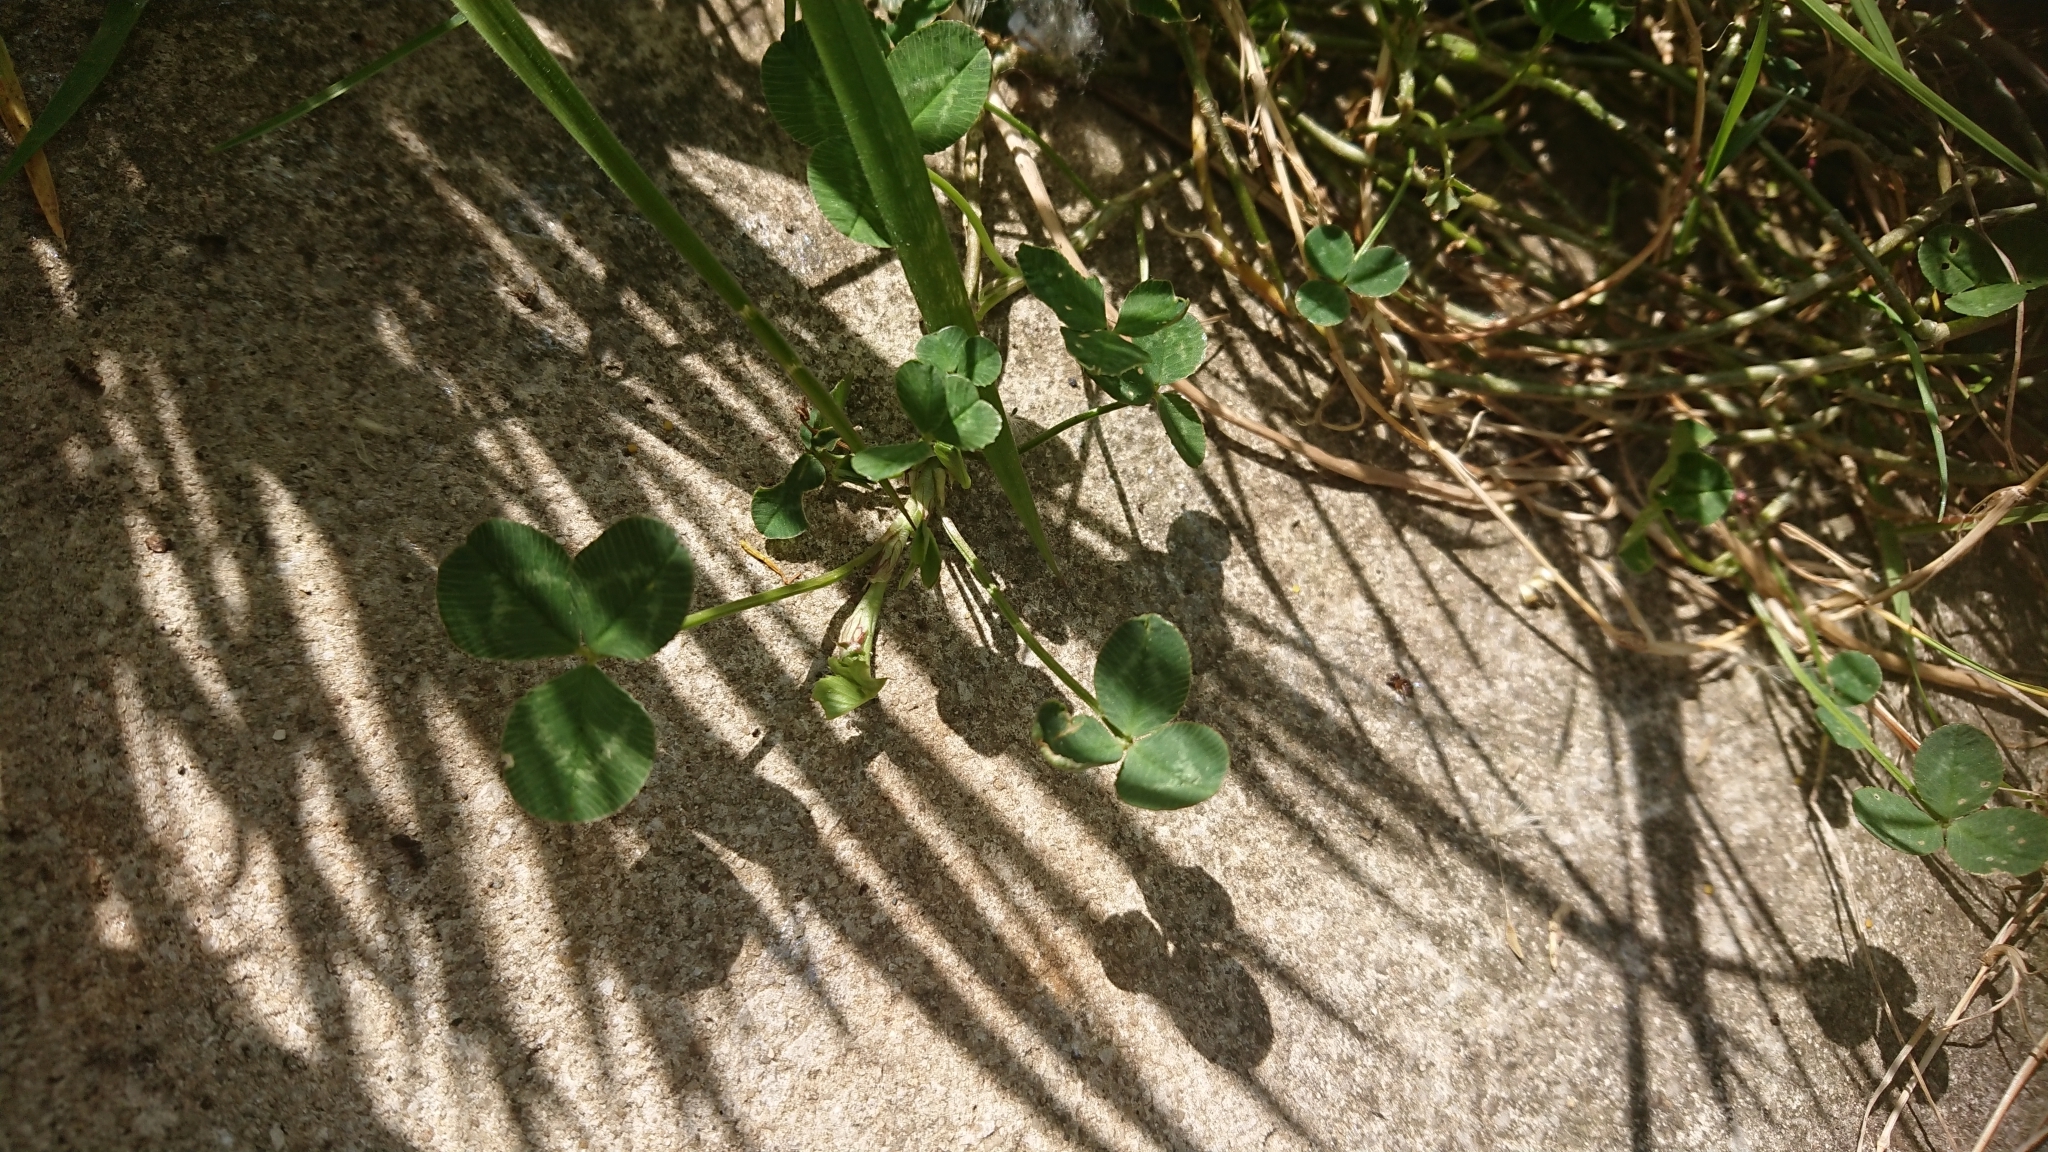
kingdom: Plantae
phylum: Tracheophyta
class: Magnoliopsida
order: Fabales
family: Fabaceae
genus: Trifolium
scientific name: Trifolium repens
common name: White clover
